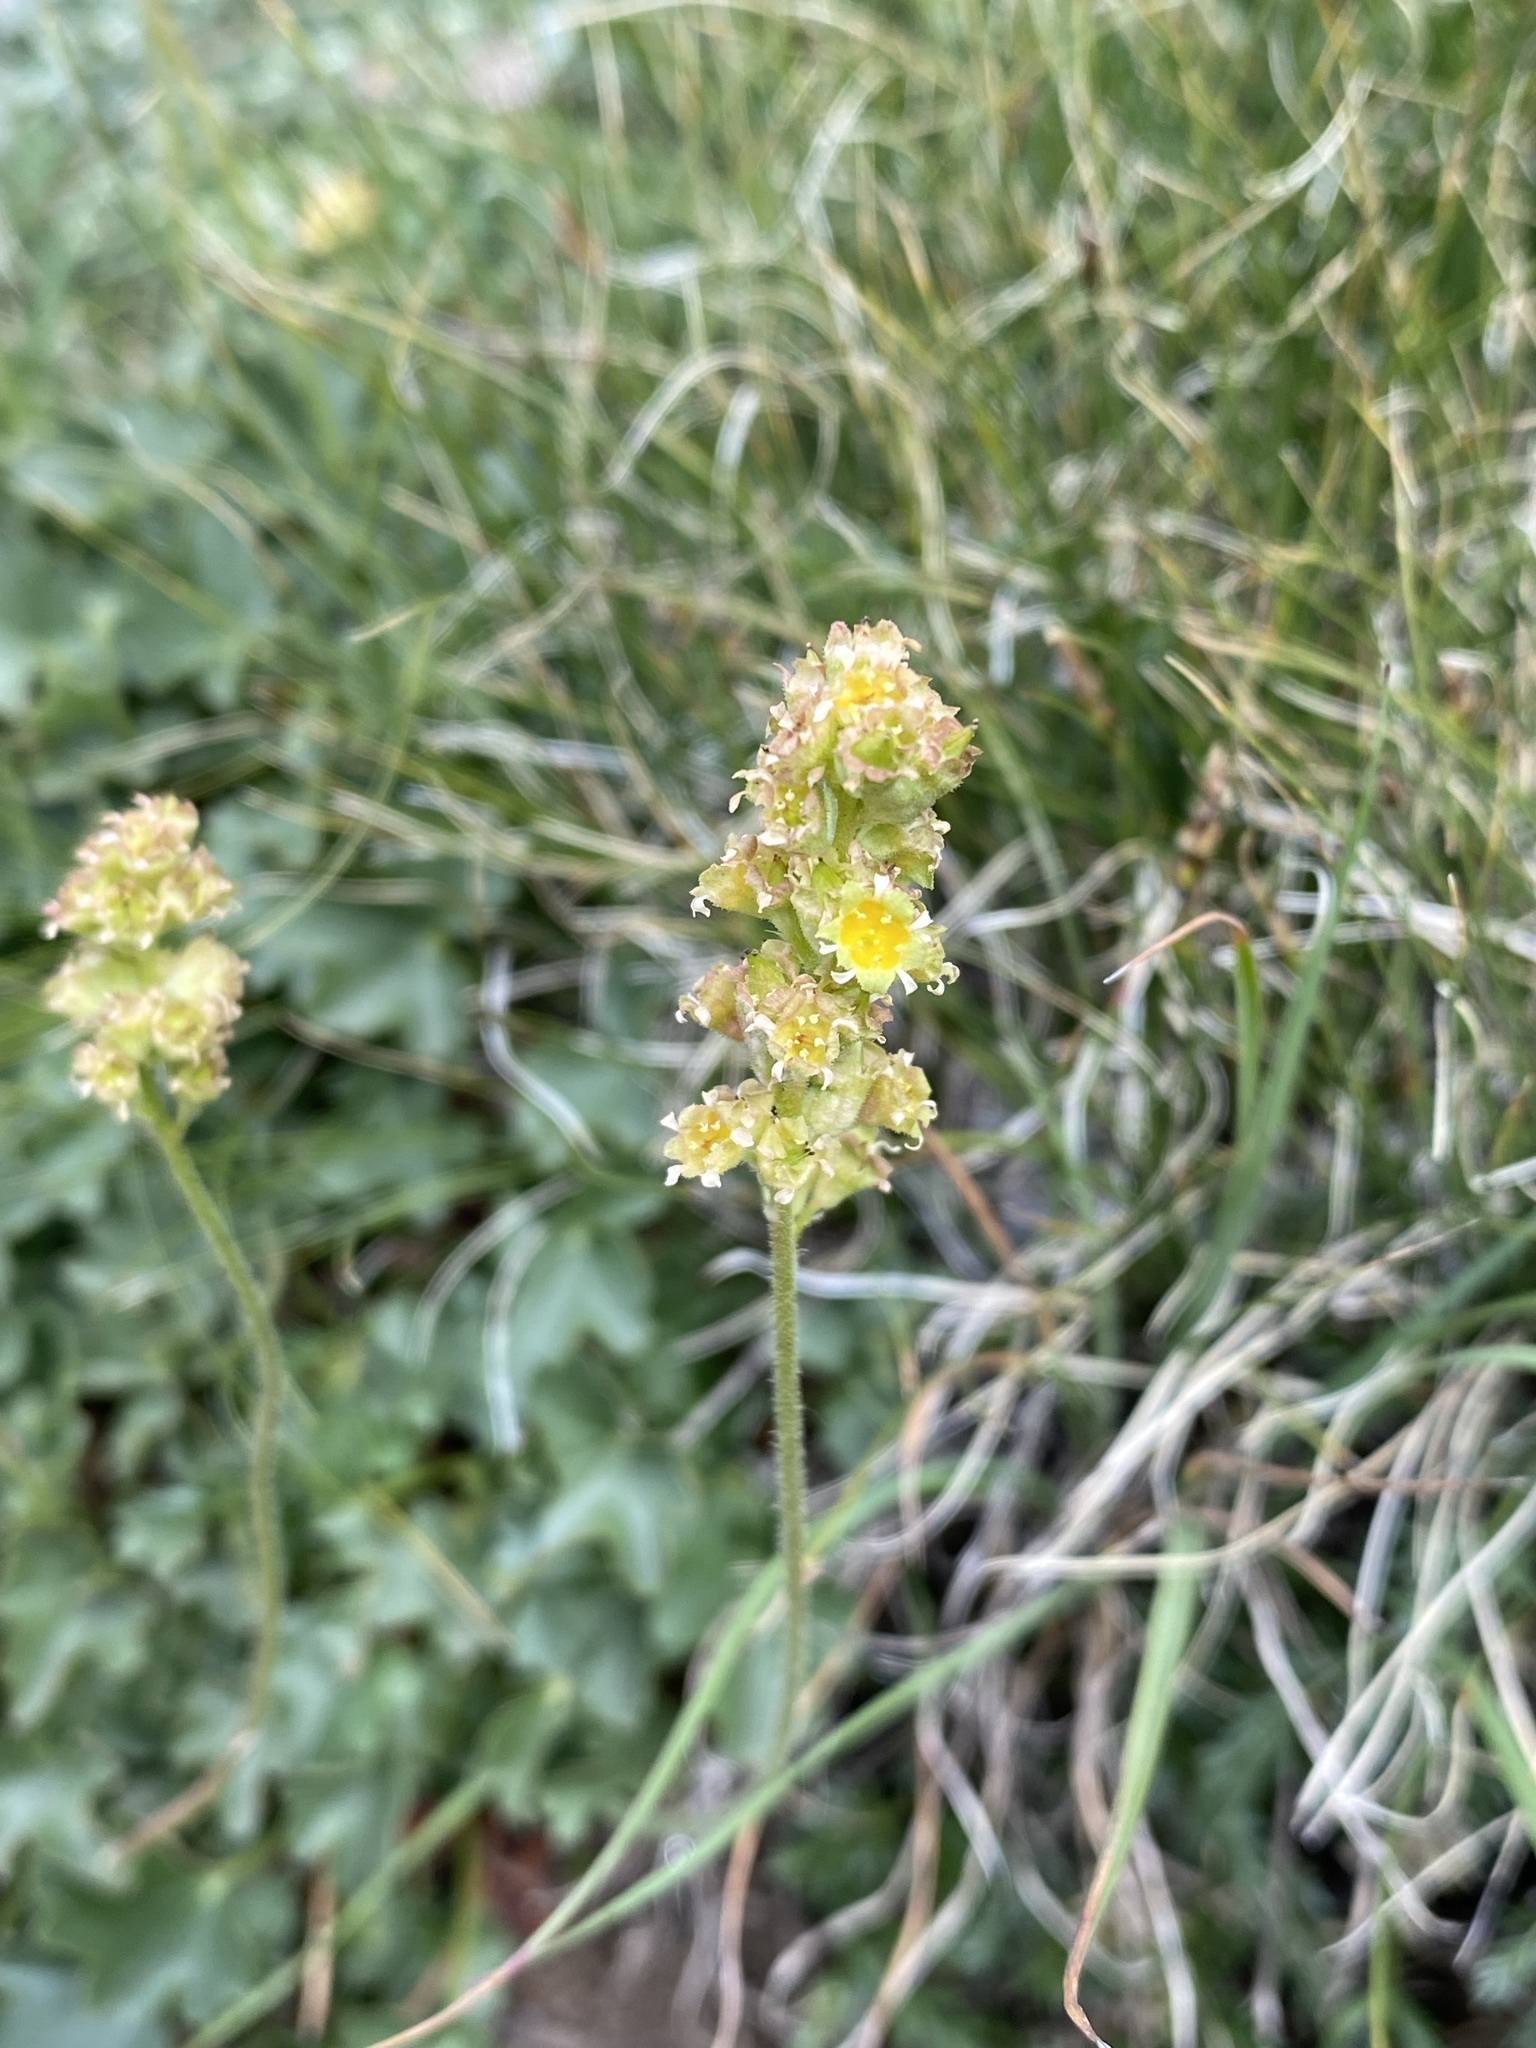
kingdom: Plantae
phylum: Tracheophyta
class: Magnoliopsida
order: Saxifragales
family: Saxifragaceae
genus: Heuchera
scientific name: Heuchera parvifolia
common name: Common alumroot
